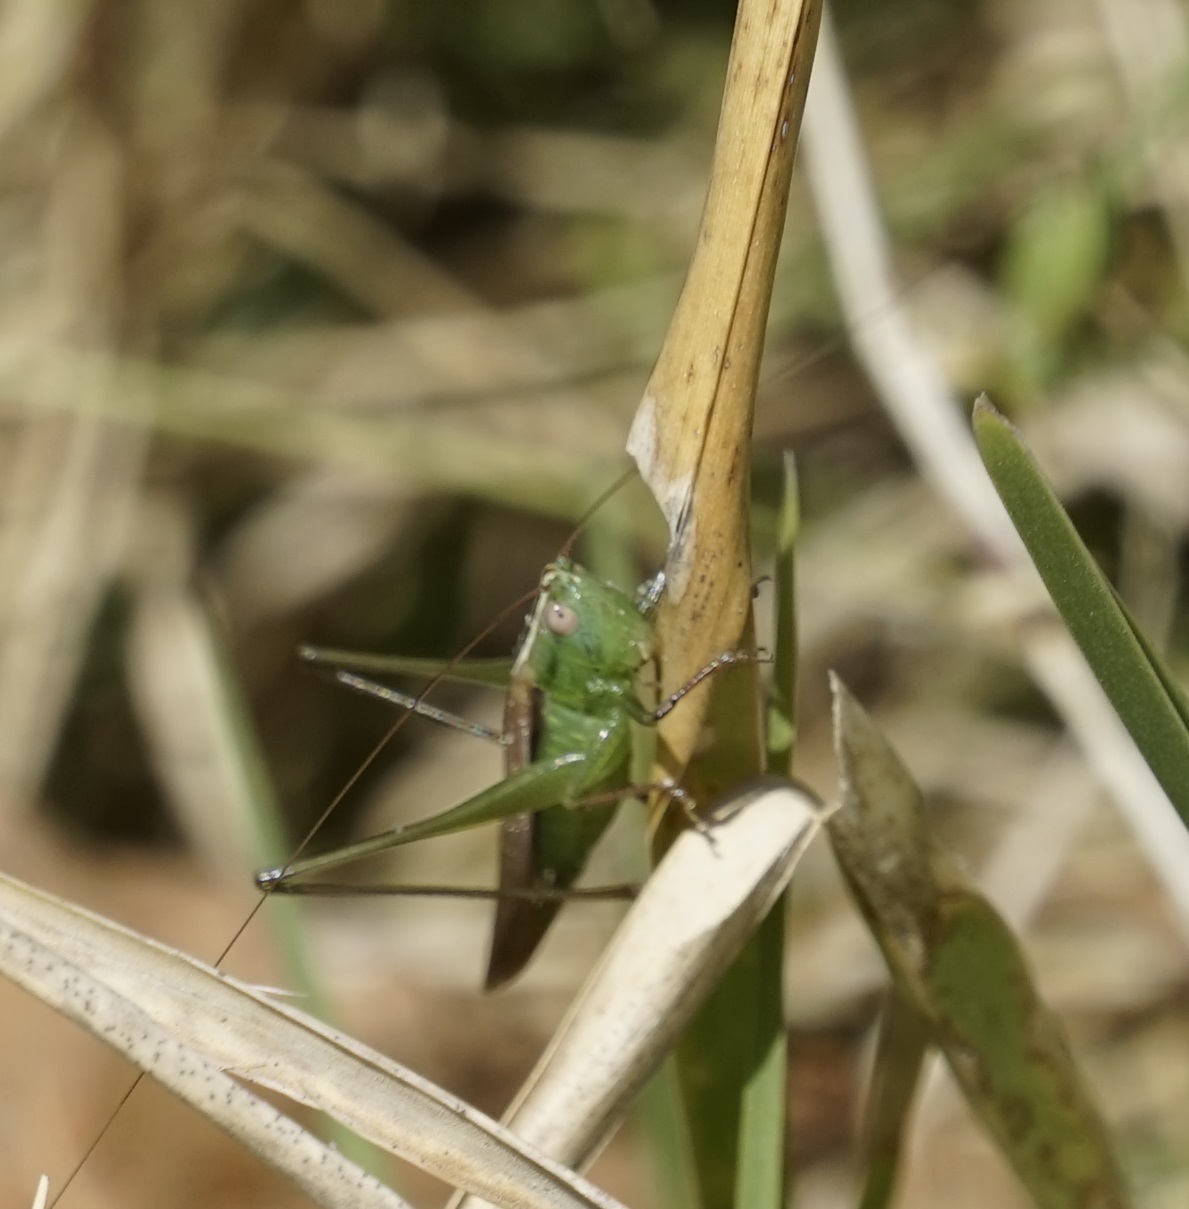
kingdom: Animalia
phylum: Arthropoda
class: Insecta
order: Orthoptera
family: Tettigoniidae
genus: Conocephalus
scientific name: Conocephalus upoluensis
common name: Upolu meadow katydid
